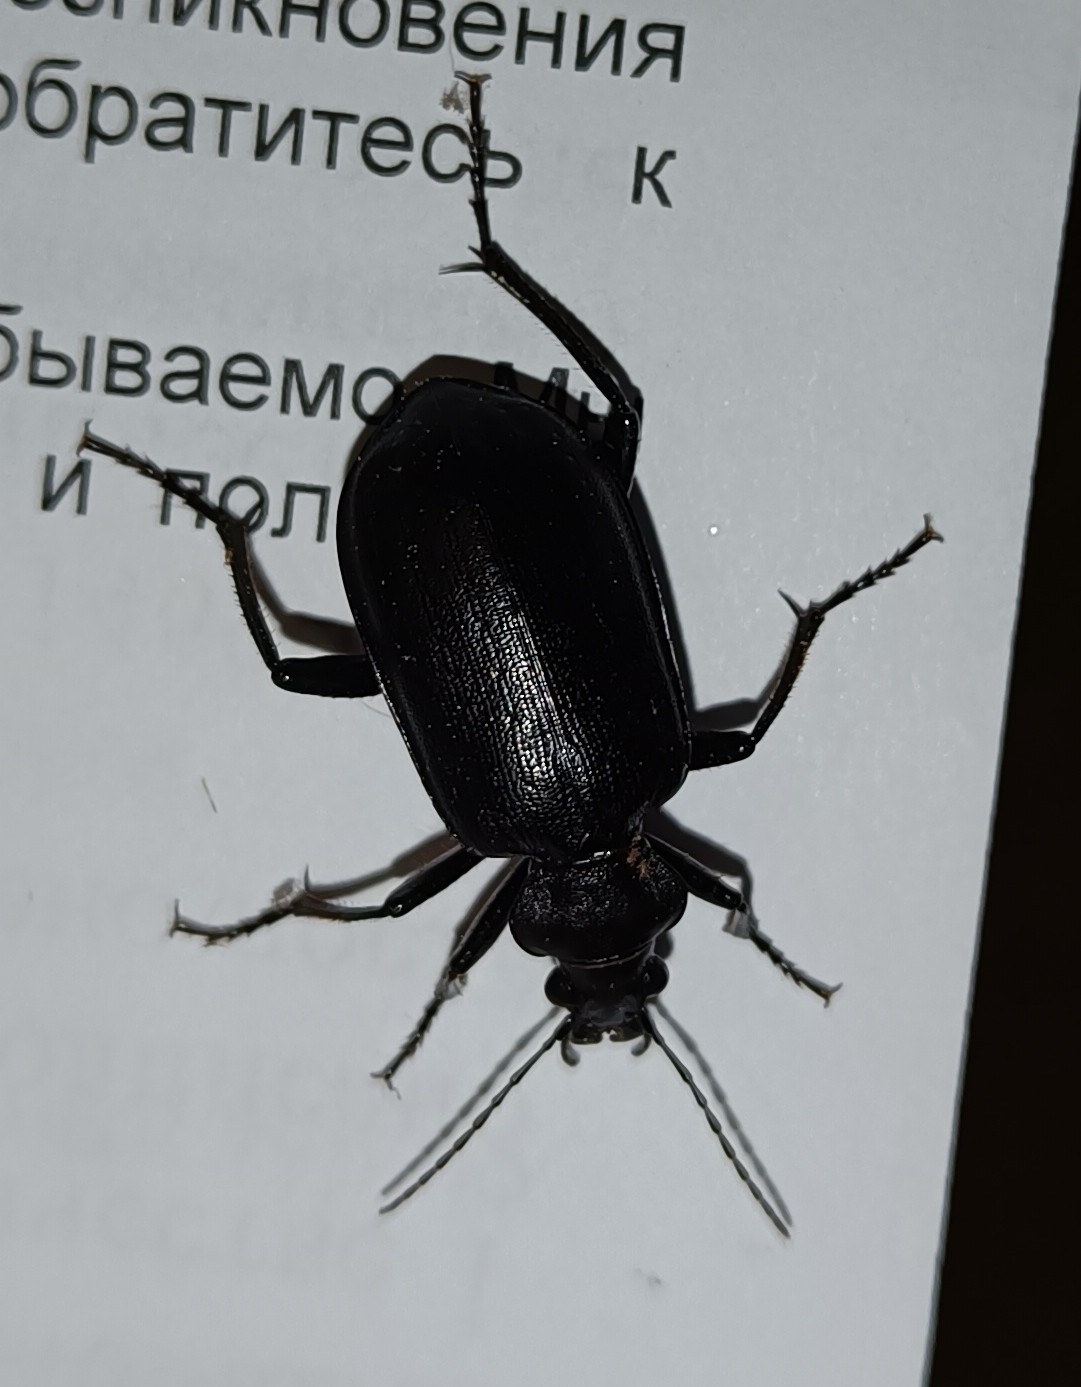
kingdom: Animalia
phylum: Arthropoda
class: Insecta
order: Coleoptera
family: Carabidae
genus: Calosoma
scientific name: Calosoma olivieri
